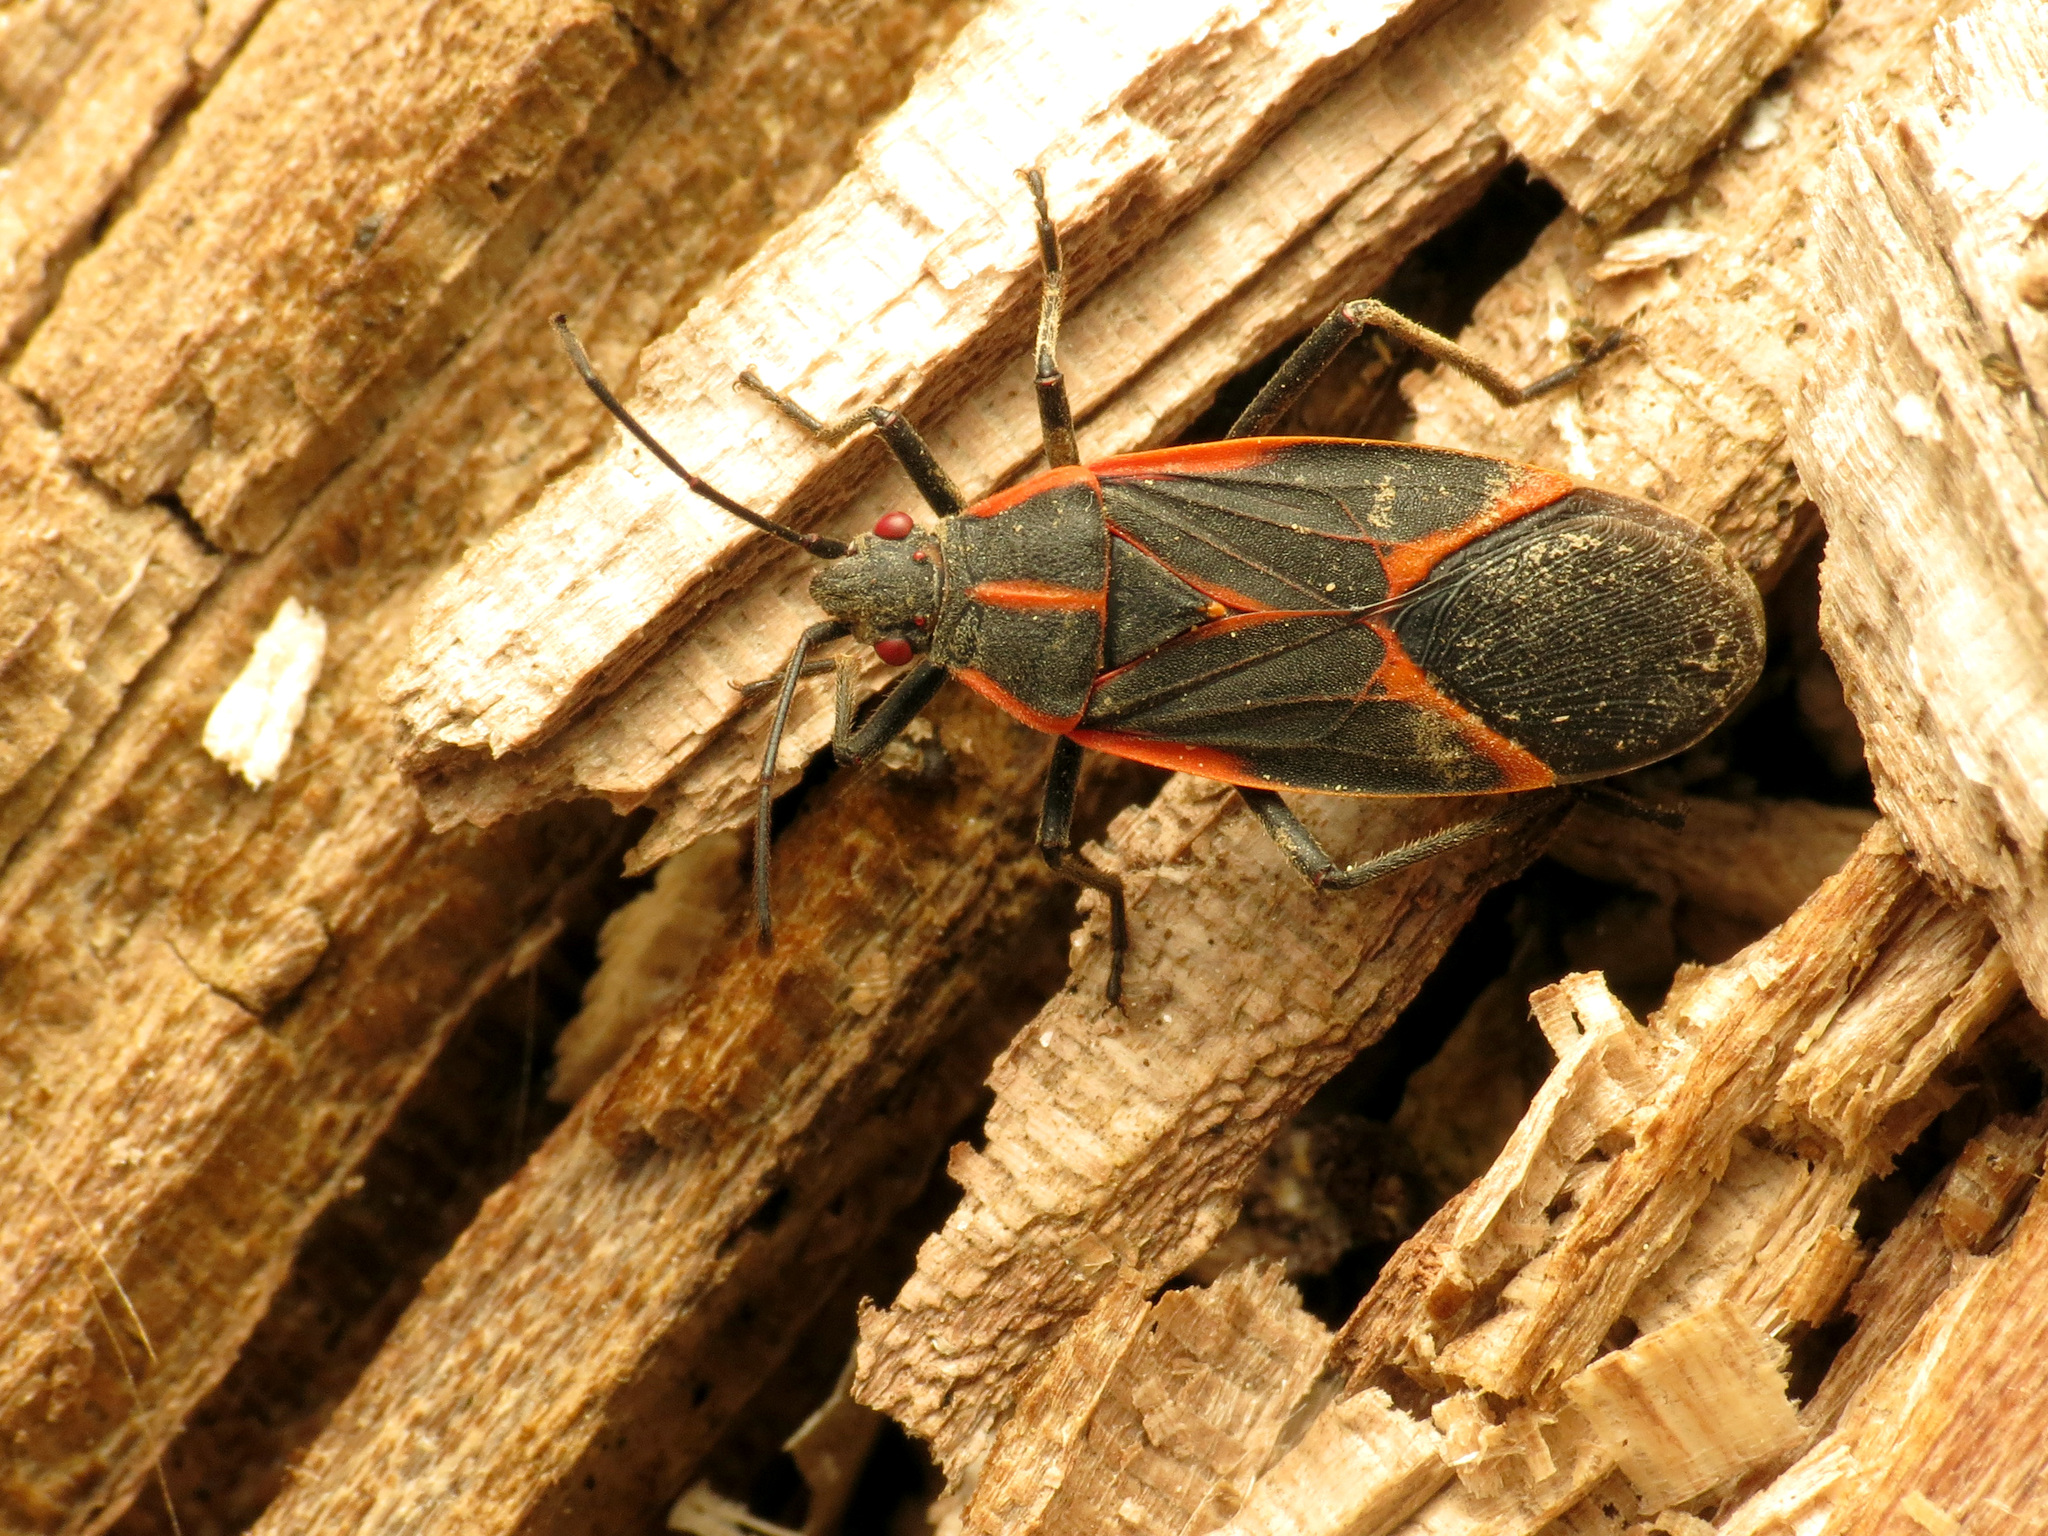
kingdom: Animalia
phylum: Arthropoda
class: Insecta
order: Hemiptera
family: Rhopalidae
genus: Boisea
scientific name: Boisea trivittata
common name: Boxelder bug
